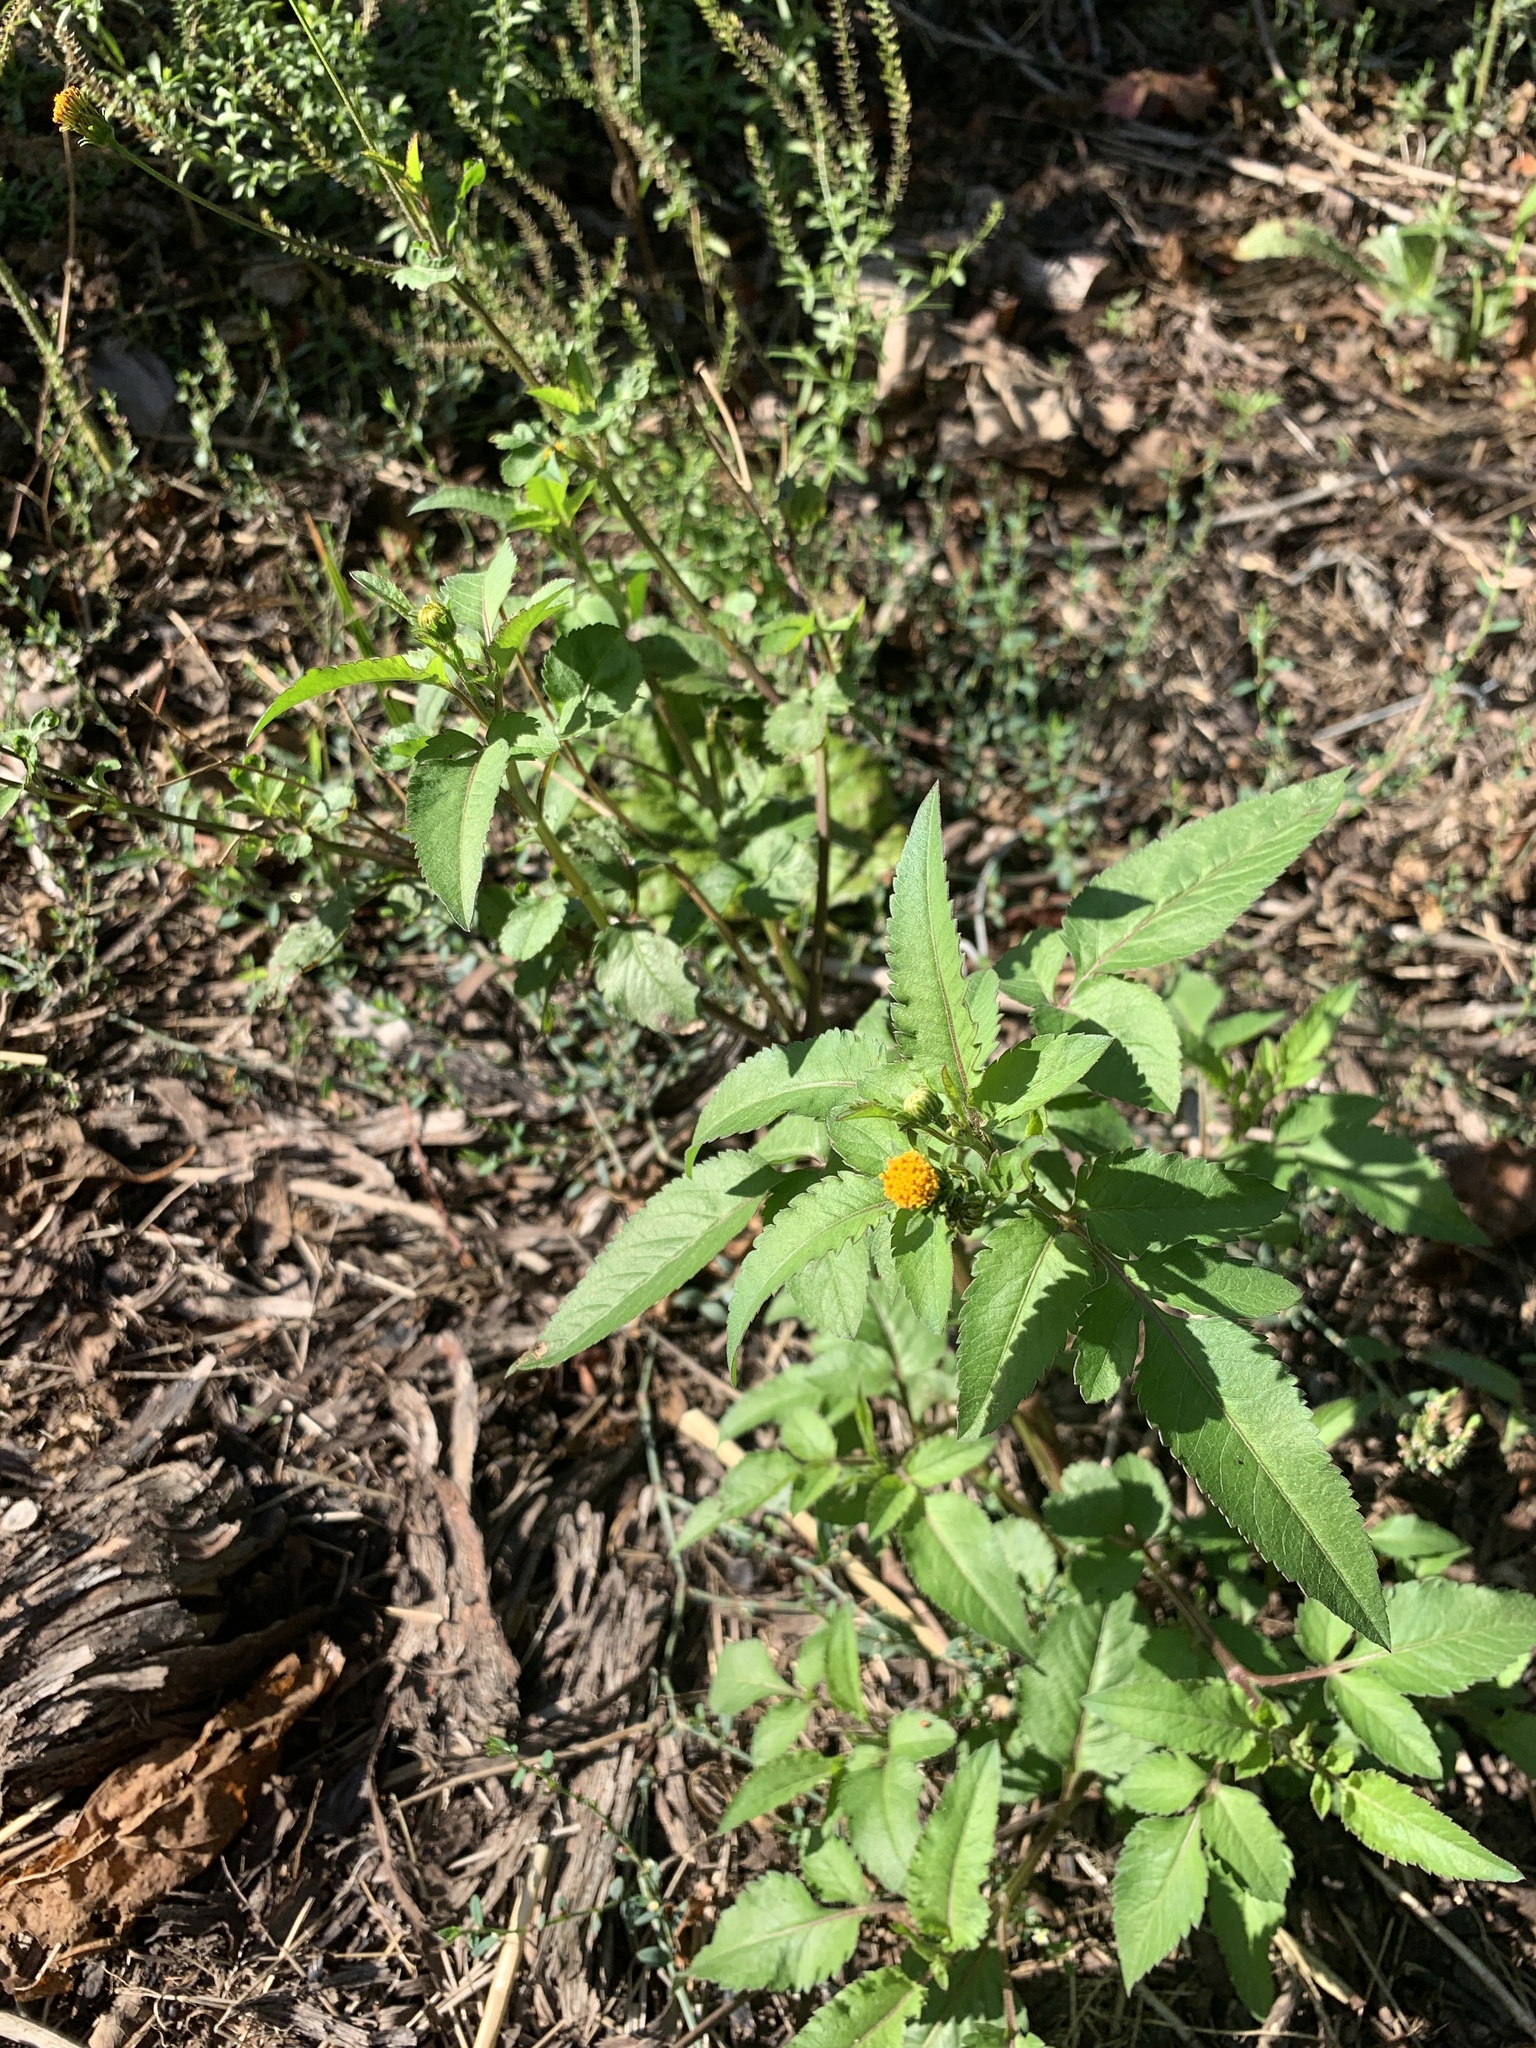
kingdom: Plantae
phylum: Tracheophyta
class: Magnoliopsida
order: Asterales
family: Asteraceae
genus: Bidens
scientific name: Bidens pilosa
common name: Black-jack
